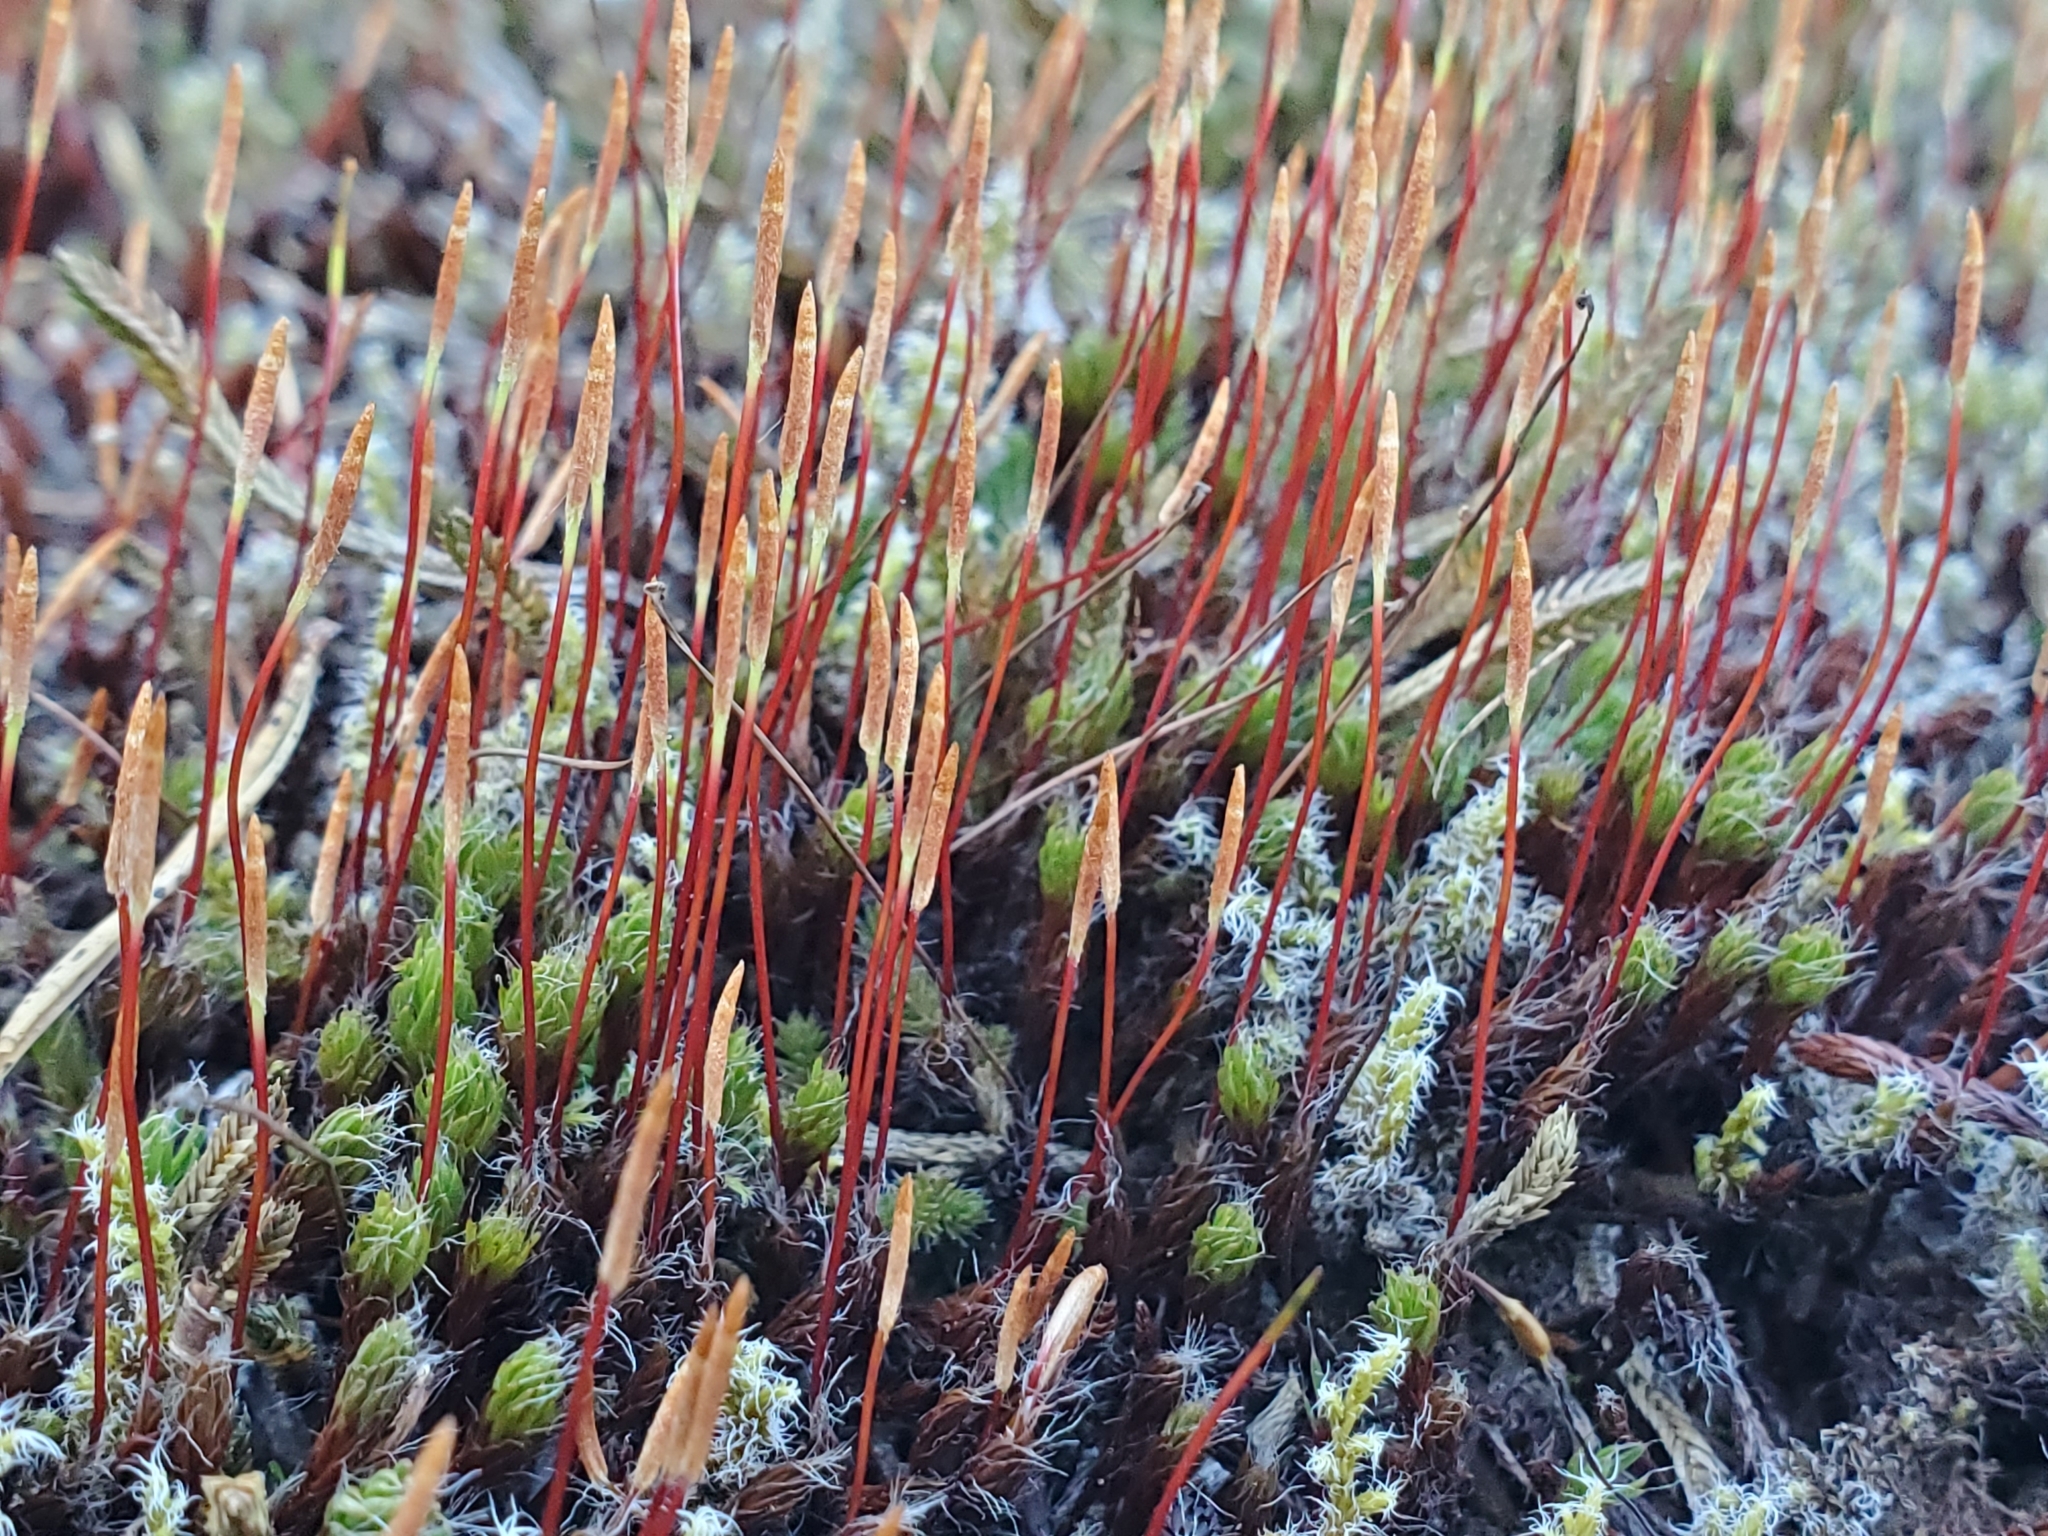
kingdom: Plantae
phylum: Bryophyta
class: Polytrichopsida
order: Polytrichales
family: Polytrichaceae
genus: Polytrichum
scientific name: Polytrichum piliferum
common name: Bristly haircap
